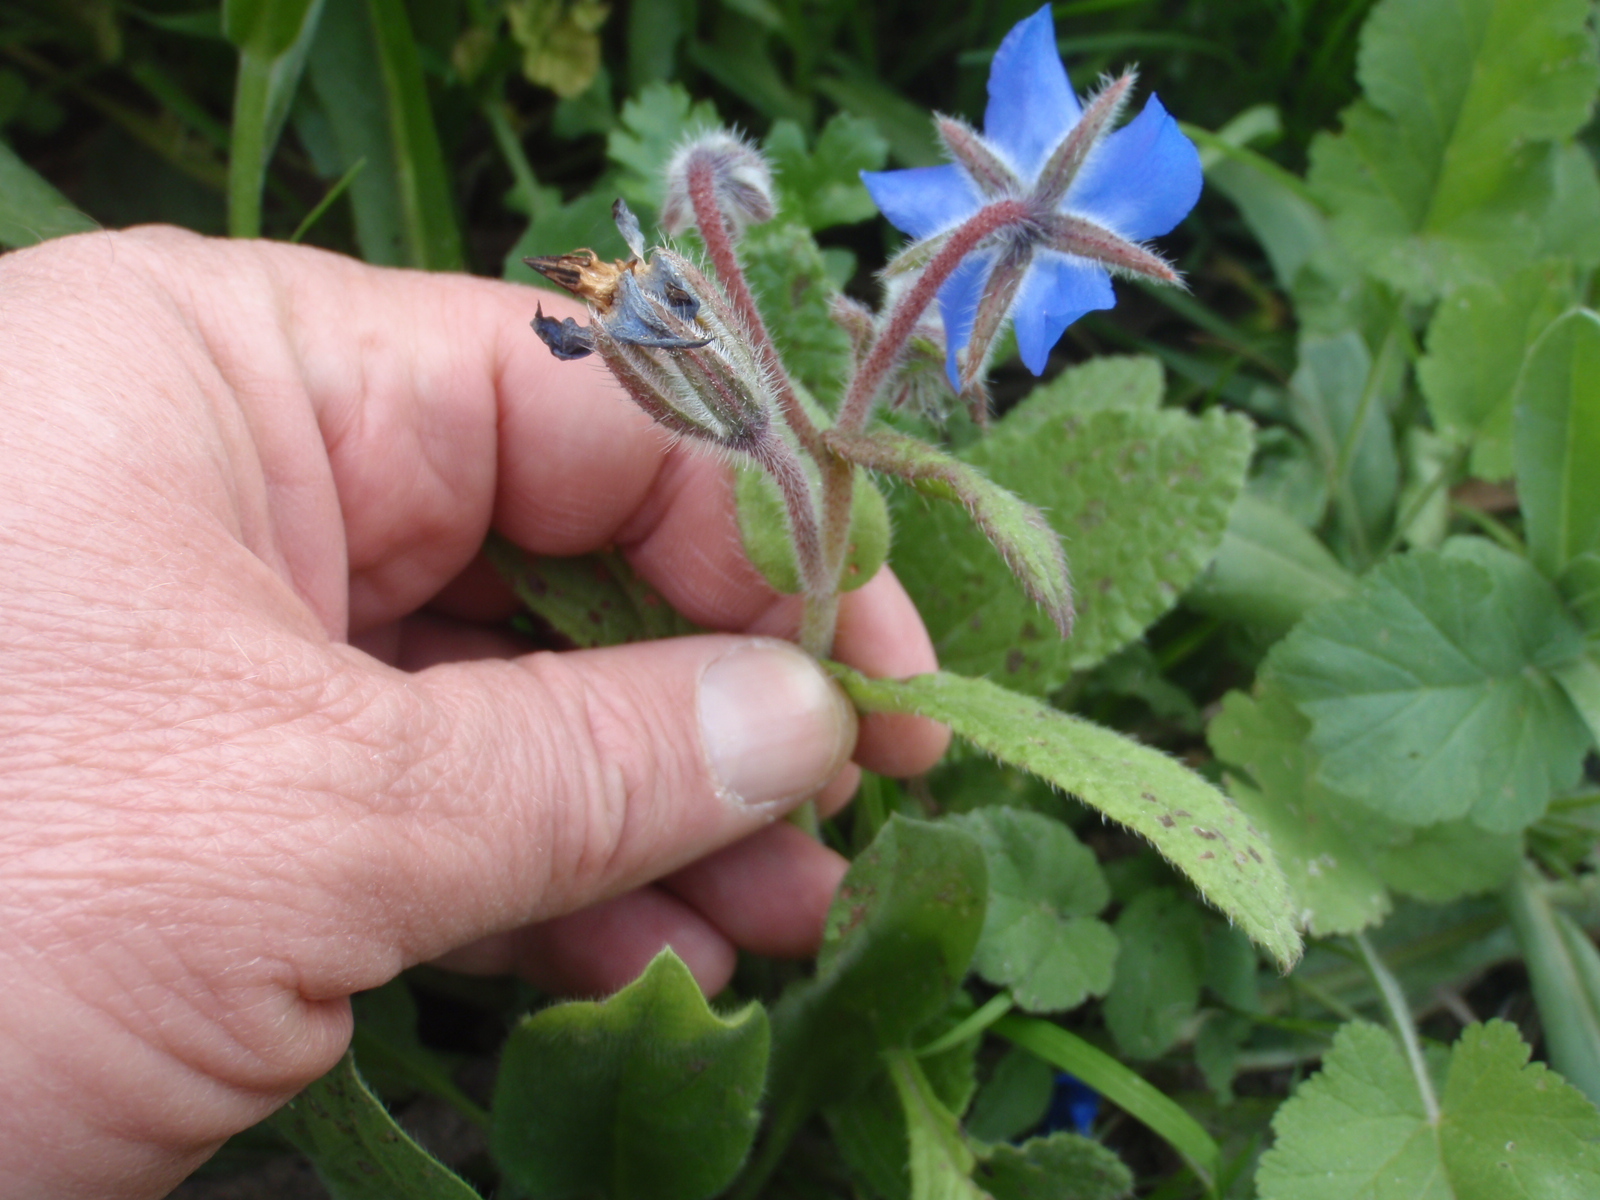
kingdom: Plantae
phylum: Tracheophyta
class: Magnoliopsida
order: Boraginales
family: Boraginaceae
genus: Borago
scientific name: Borago officinalis
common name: Borage
